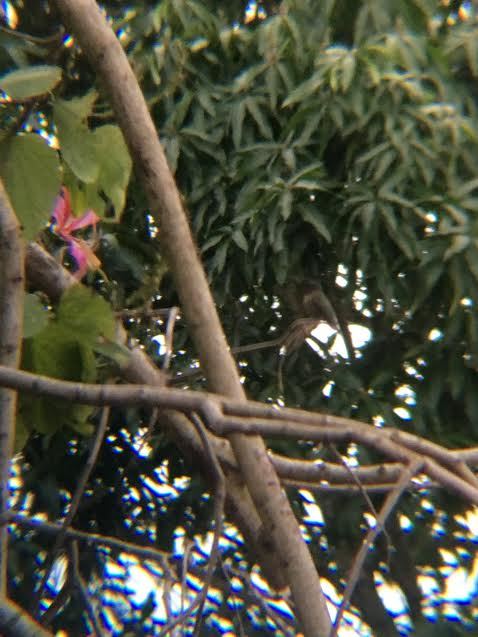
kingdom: Animalia
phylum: Chordata
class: Aves
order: Apodiformes
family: Trochilidae
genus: Archilochus
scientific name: Archilochus colubris
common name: Ruby-throated hummingbird
